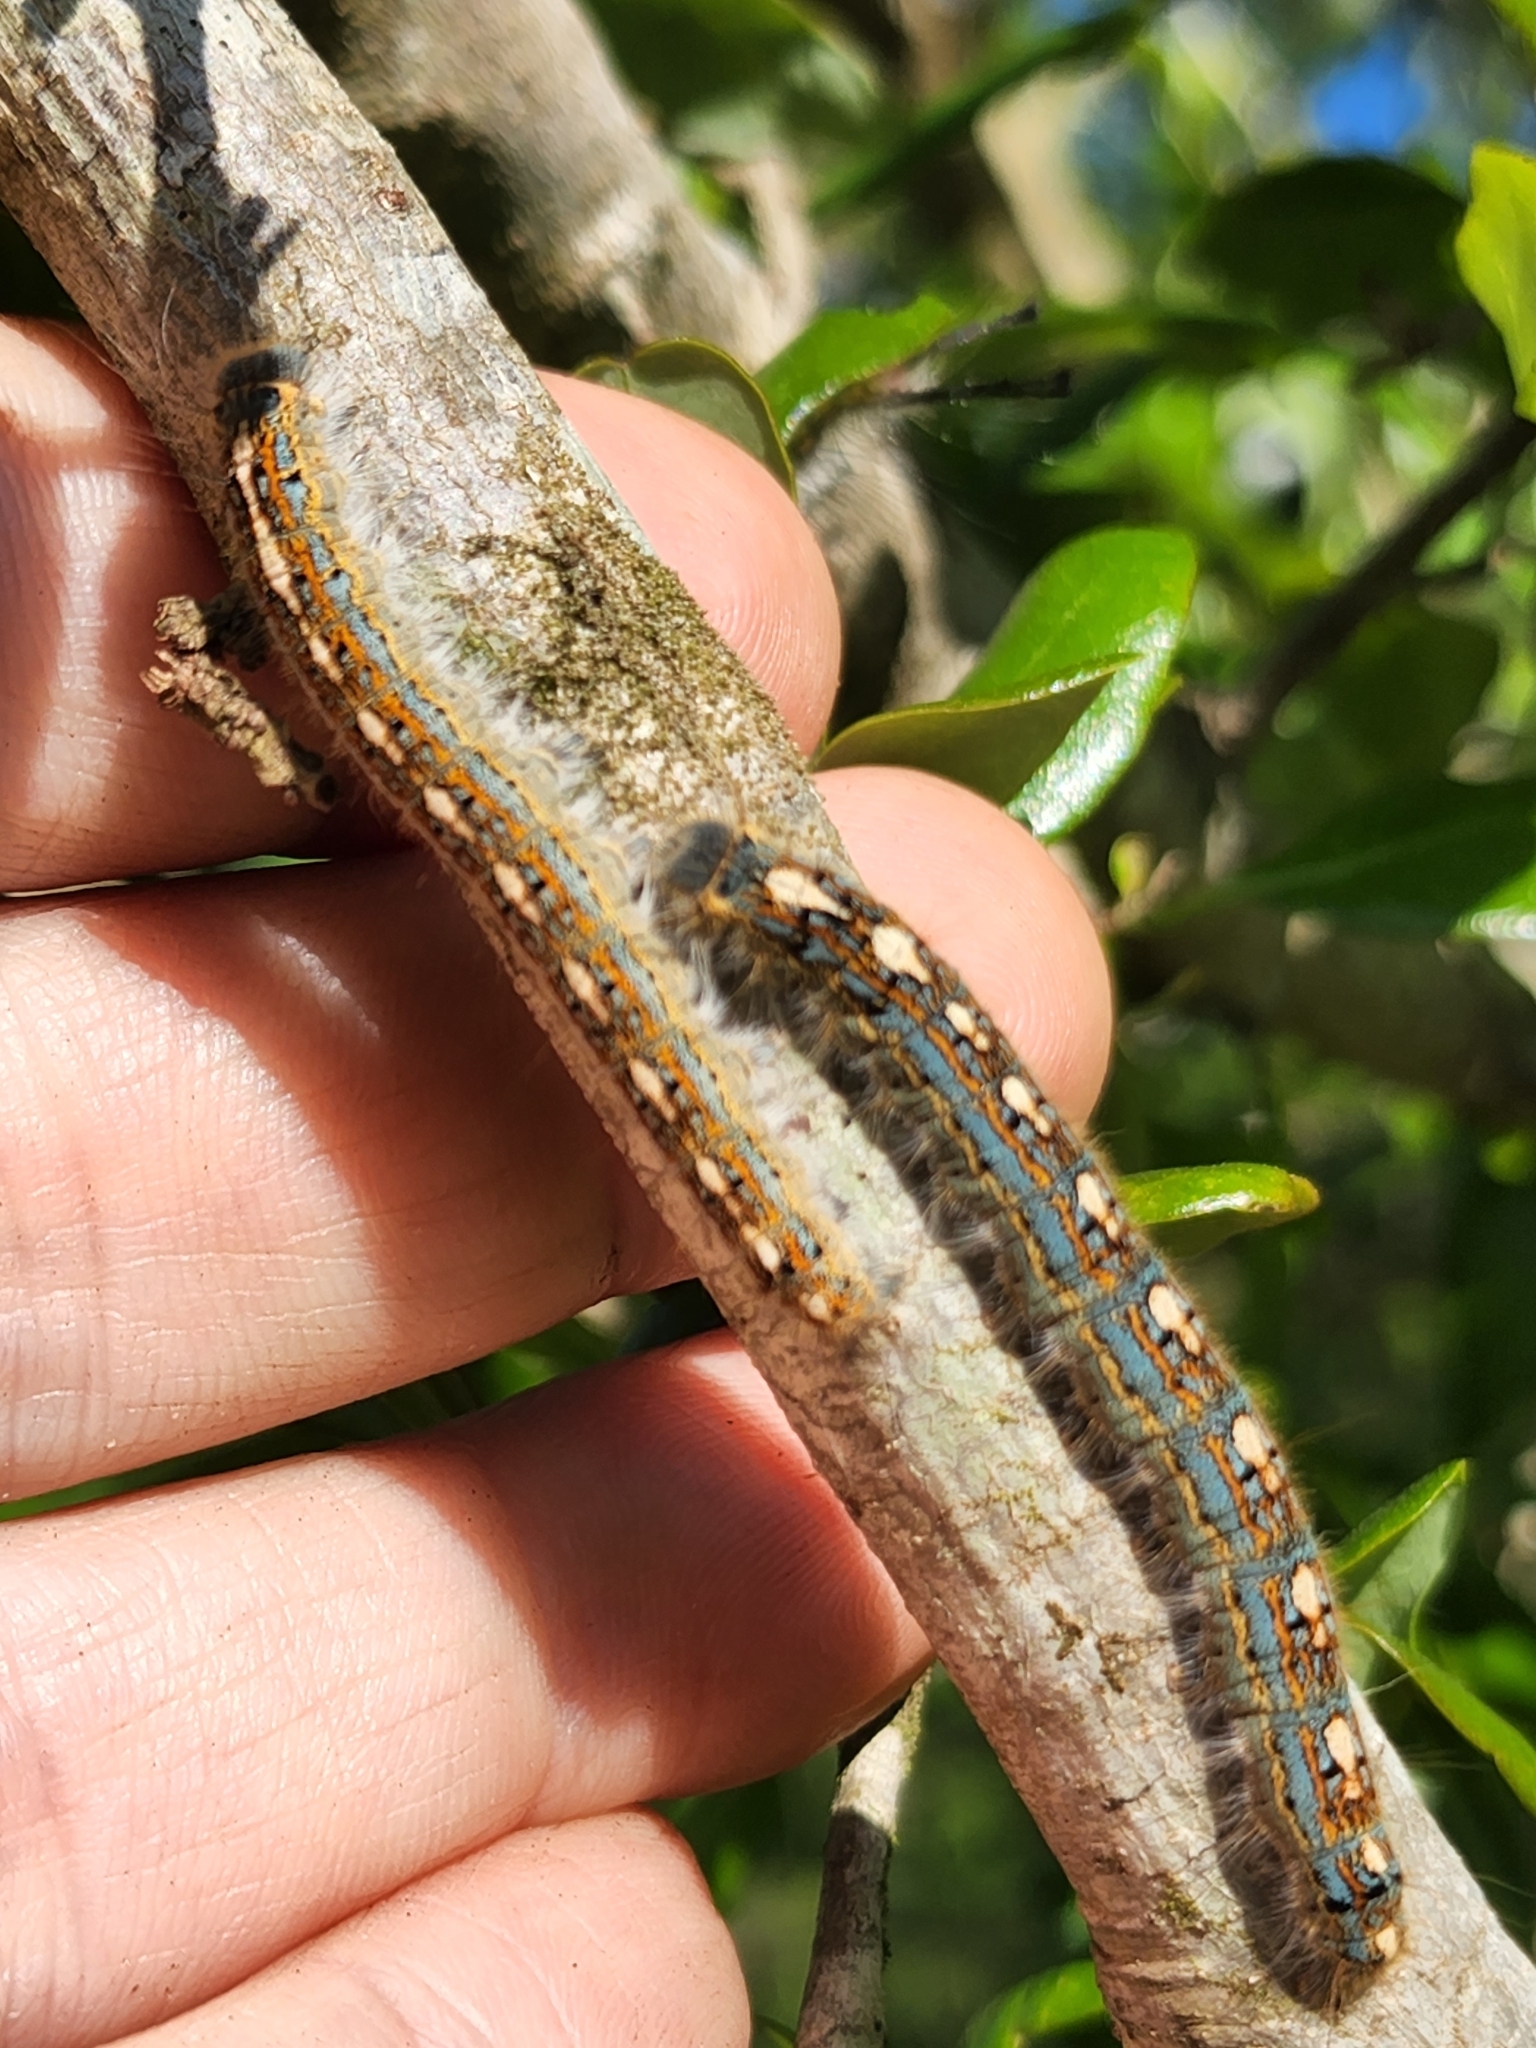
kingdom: Animalia
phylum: Arthropoda
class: Insecta
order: Lepidoptera
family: Lasiocampidae
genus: Malacosoma
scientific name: Malacosoma disstria
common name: Forest tent caterpillar
